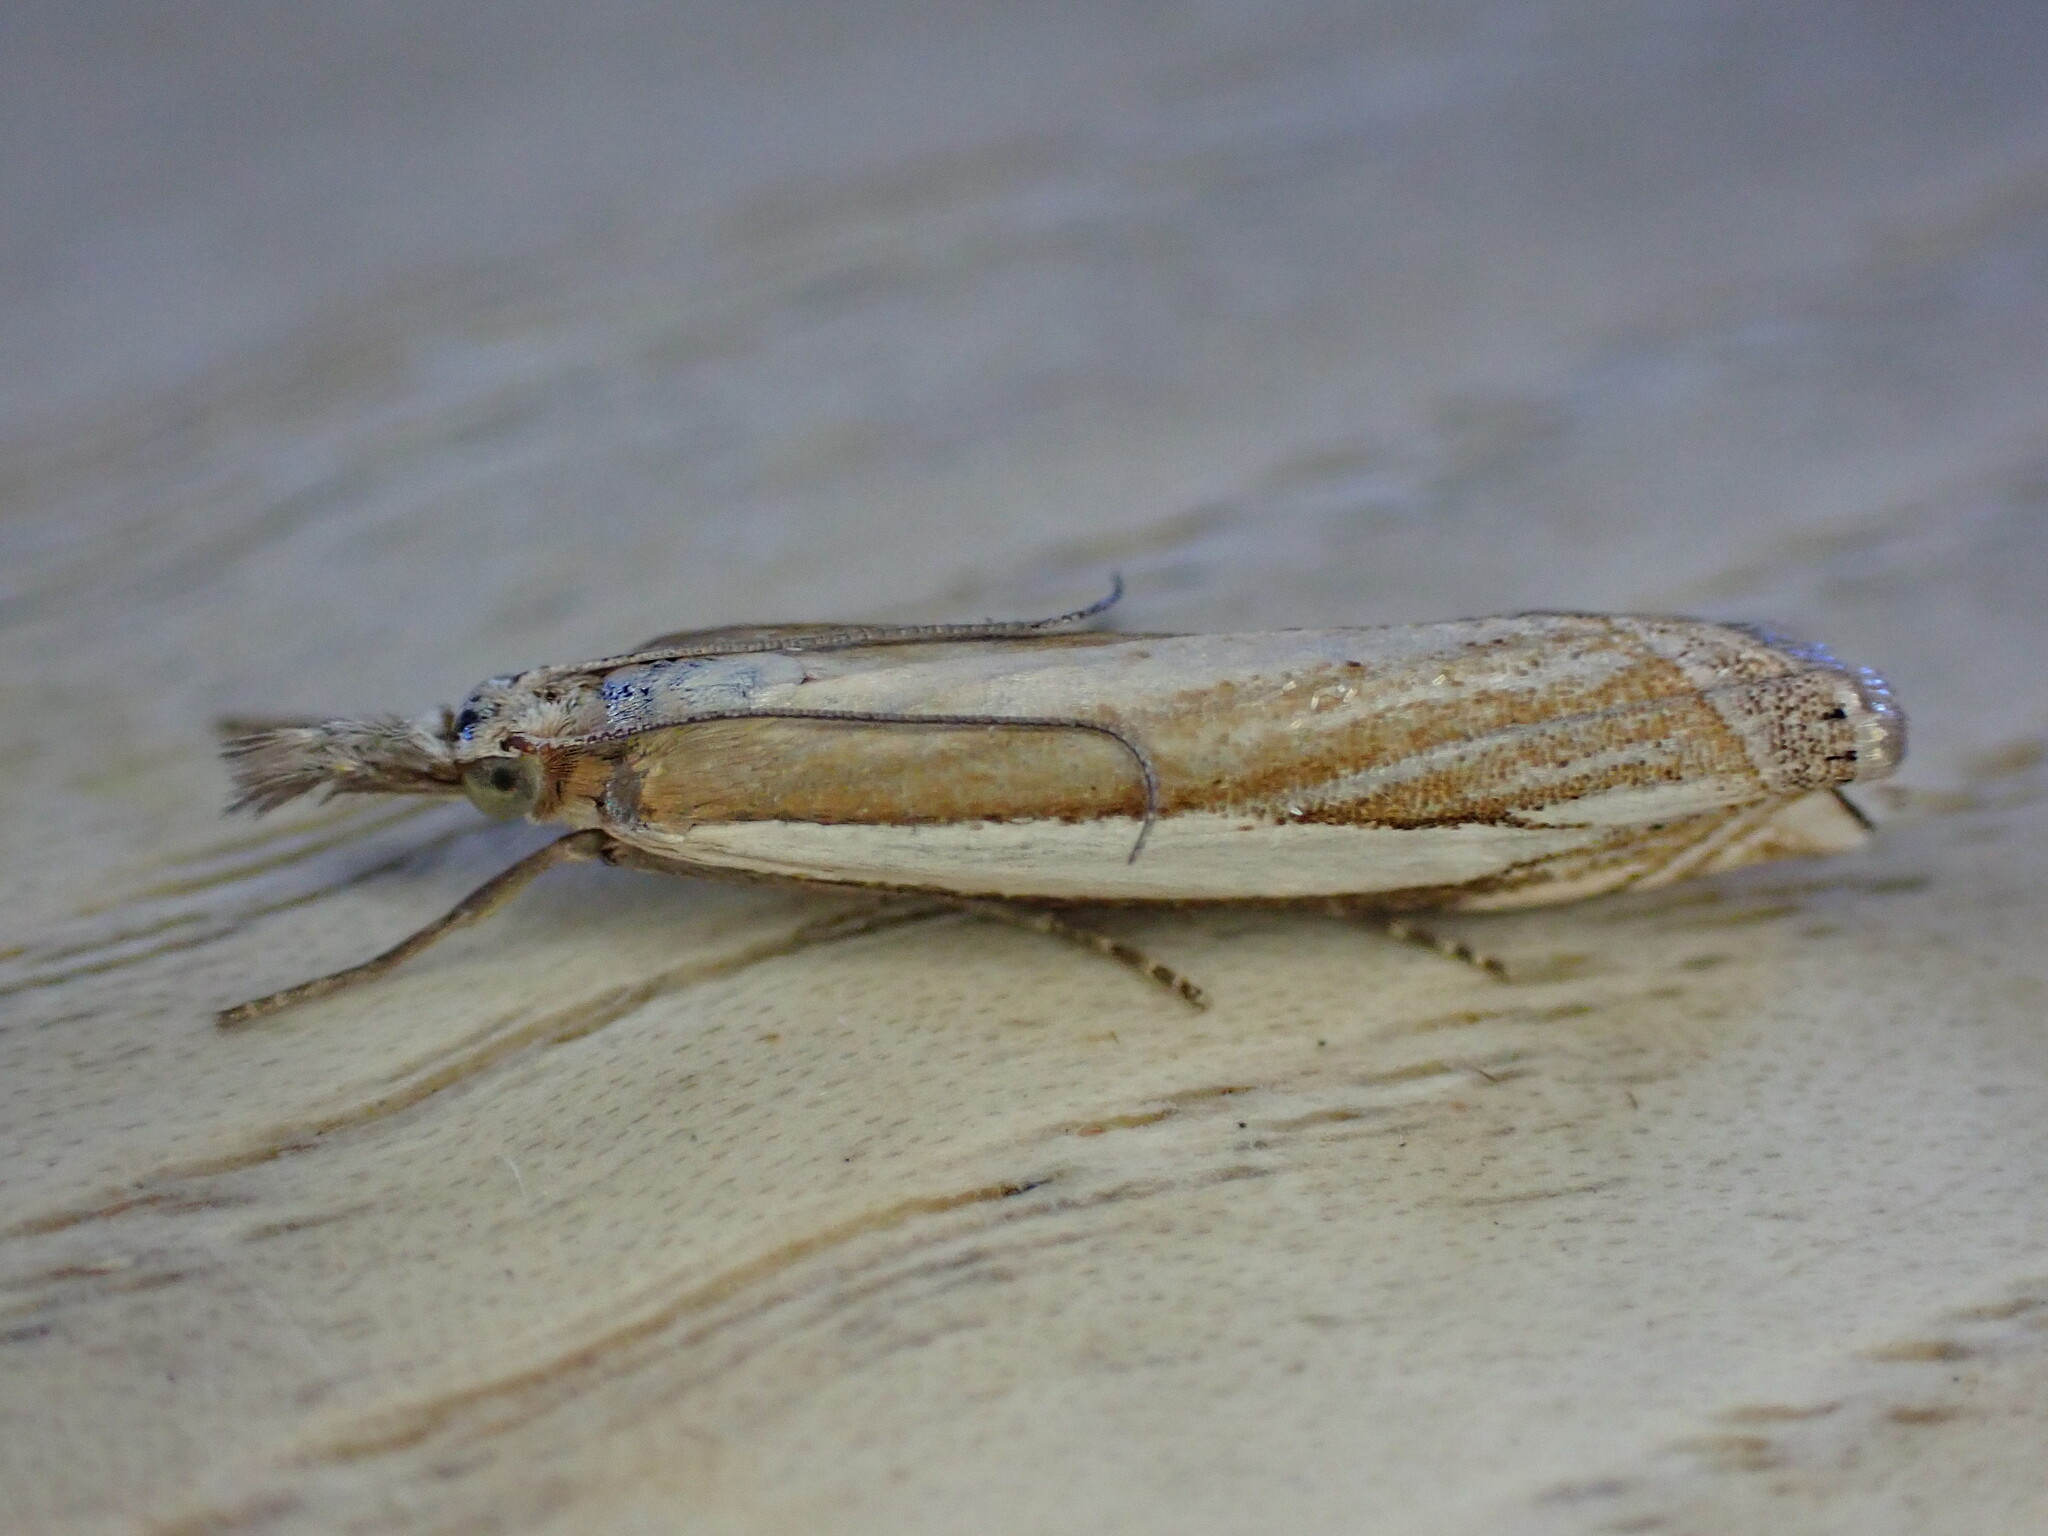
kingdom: Animalia
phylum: Arthropoda
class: Insecta
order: Lepidoptera
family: Crambidae
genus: Crambus
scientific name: Crambus pascuella
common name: Inlaid grass-veneer
